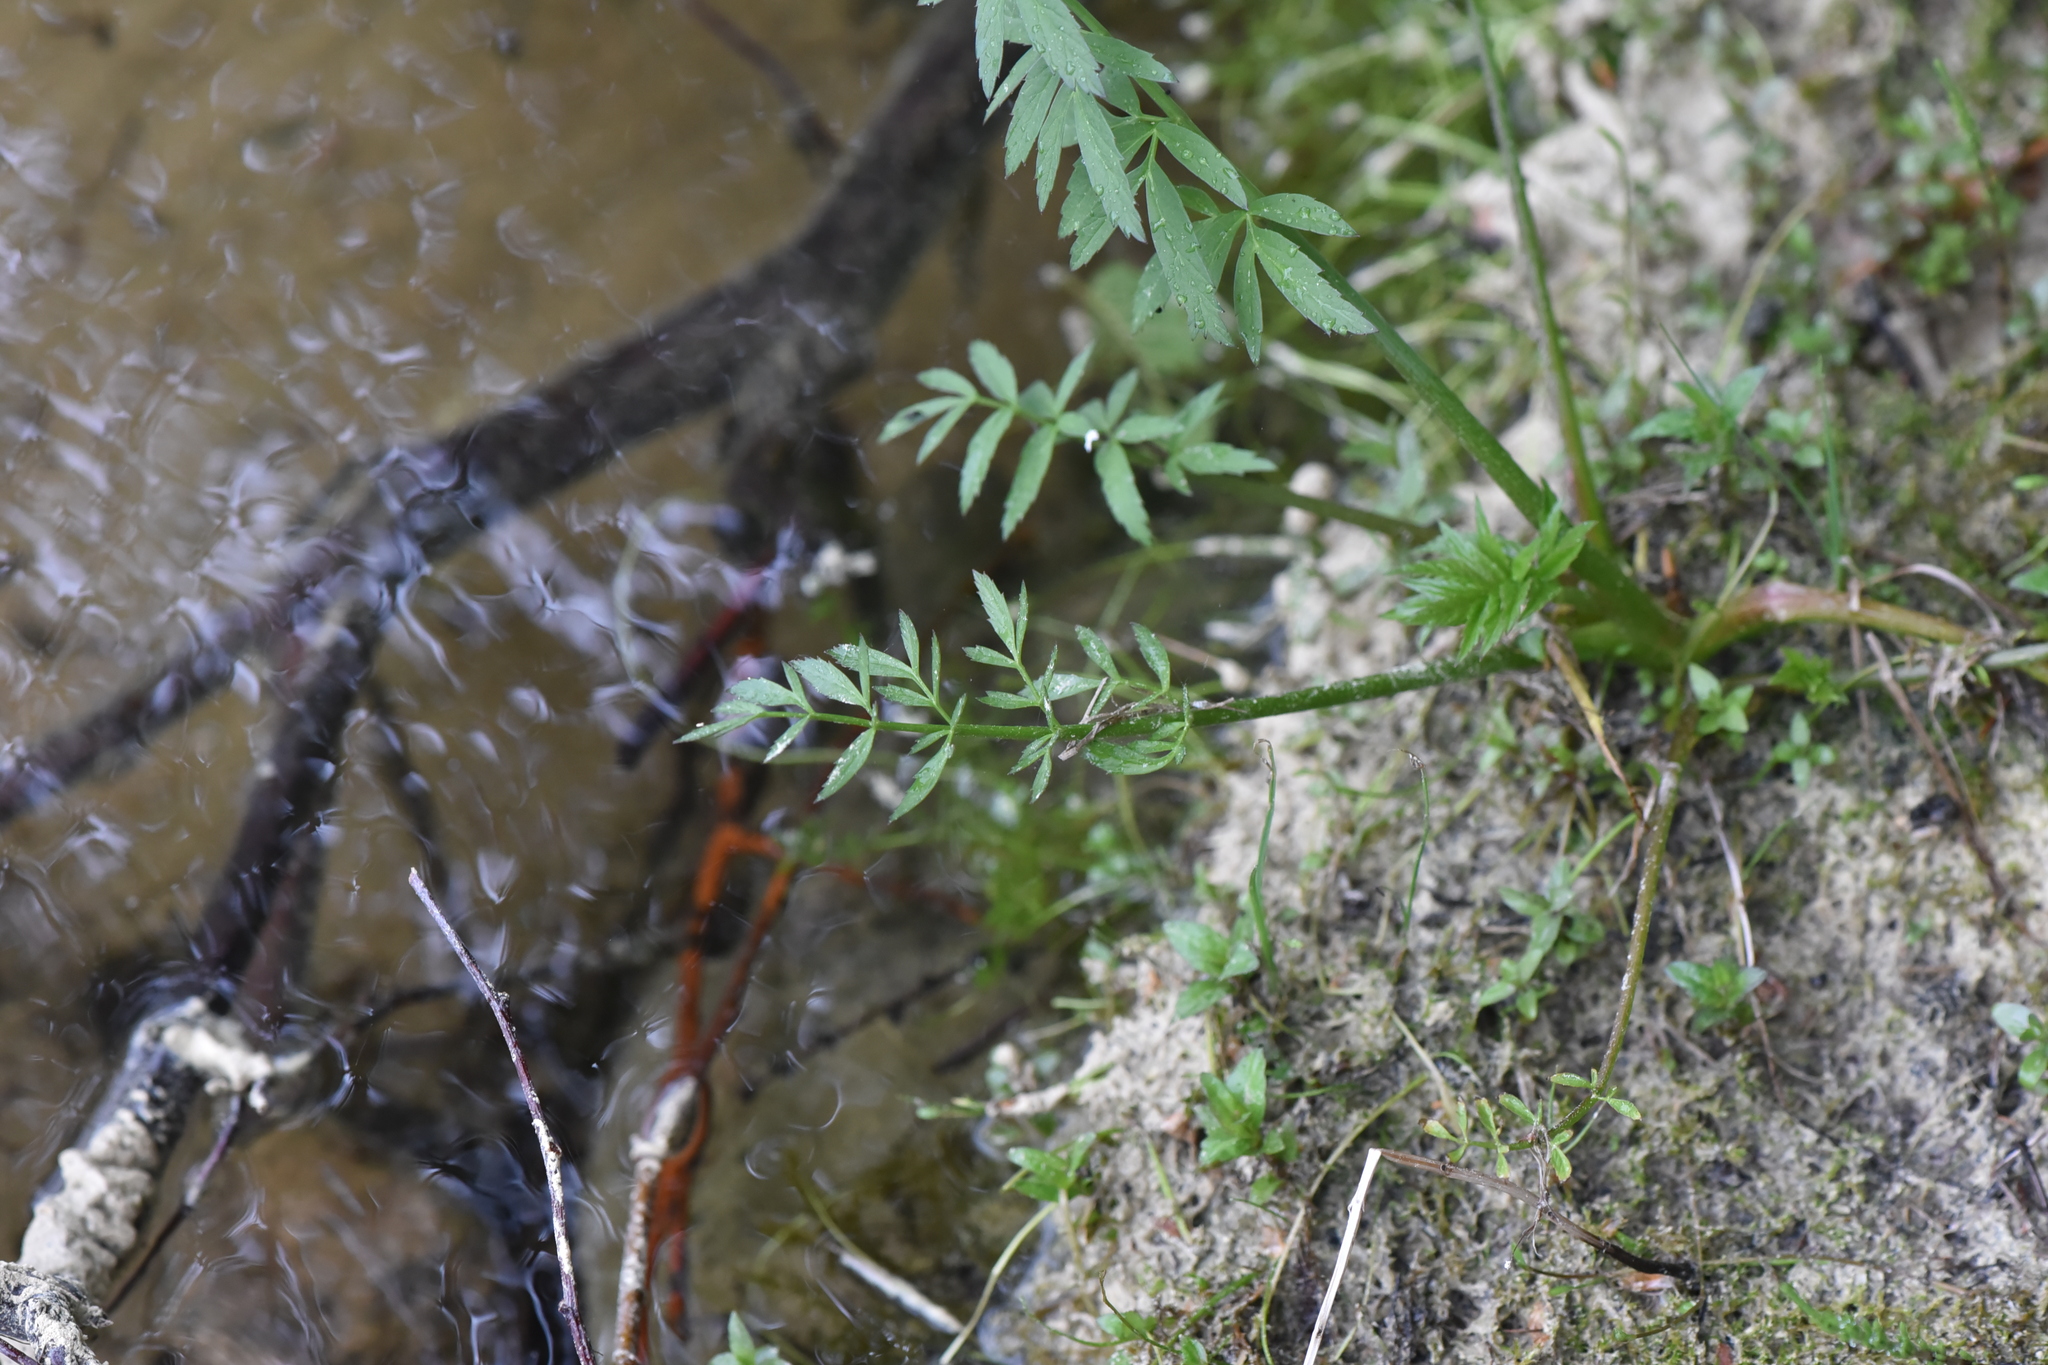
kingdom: Plantae
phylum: Tracheophyta
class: Magnoliopsida
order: Apiales
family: Apiaceae
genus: Cicuta
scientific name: Cicuta douglasii
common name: Western water-hemlock
